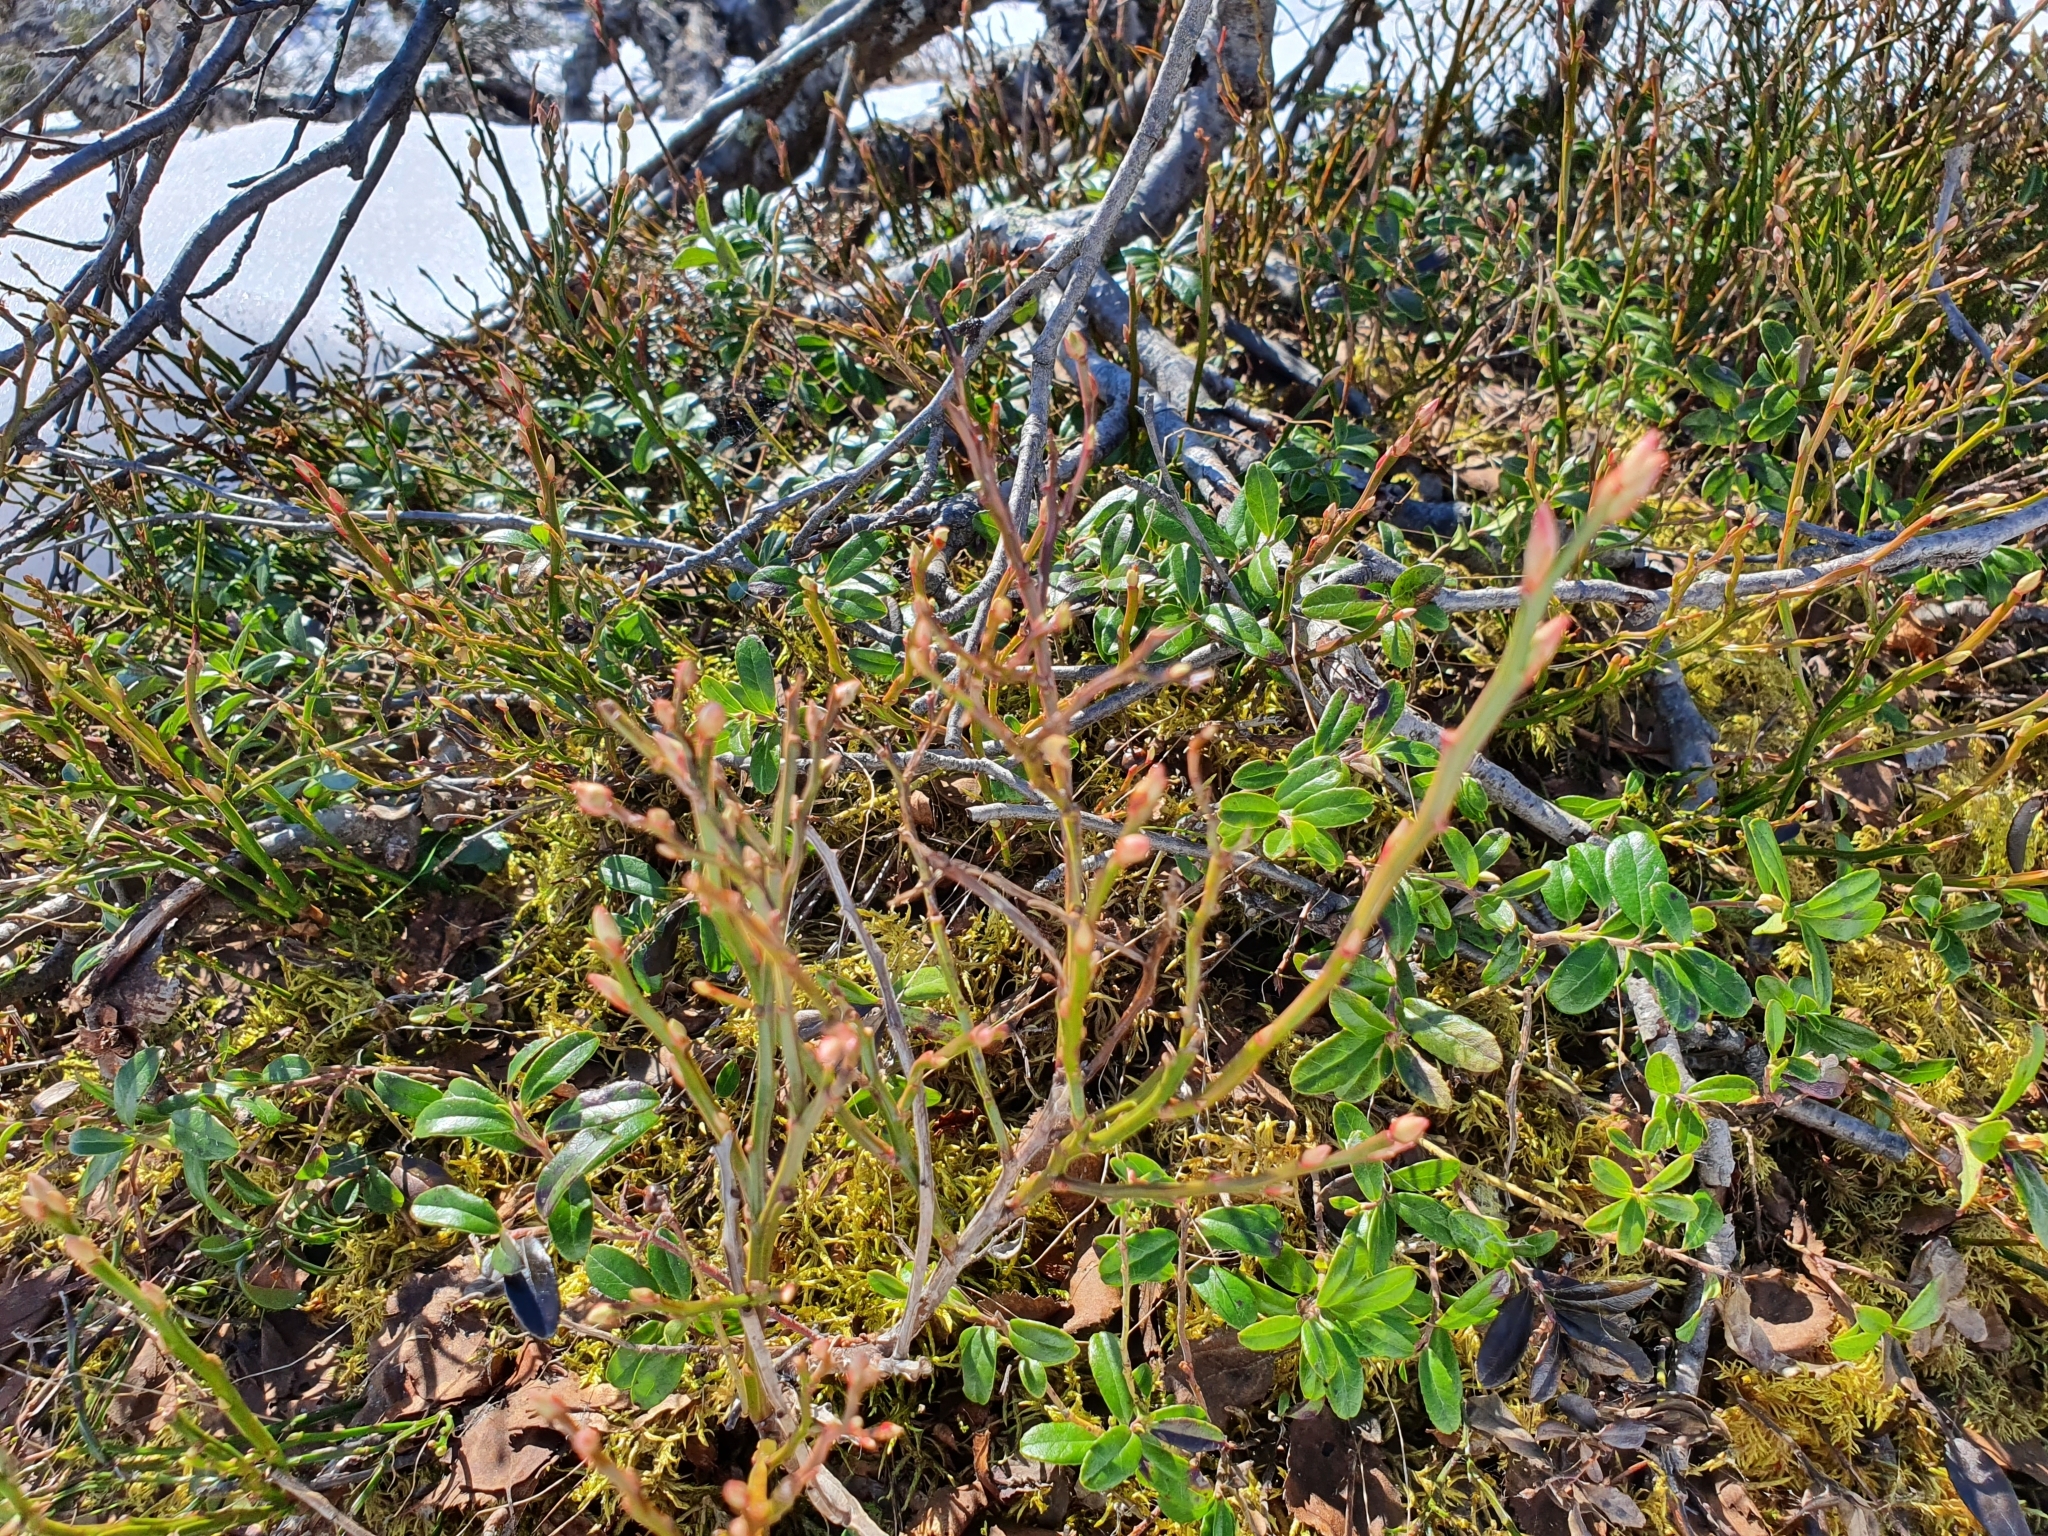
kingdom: Plantae
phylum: Tracheophyta
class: Magnoliopsida
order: Ericales
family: Ericaceae
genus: Vaccinium
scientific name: Vaccinium myrtillus
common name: Bilberry
